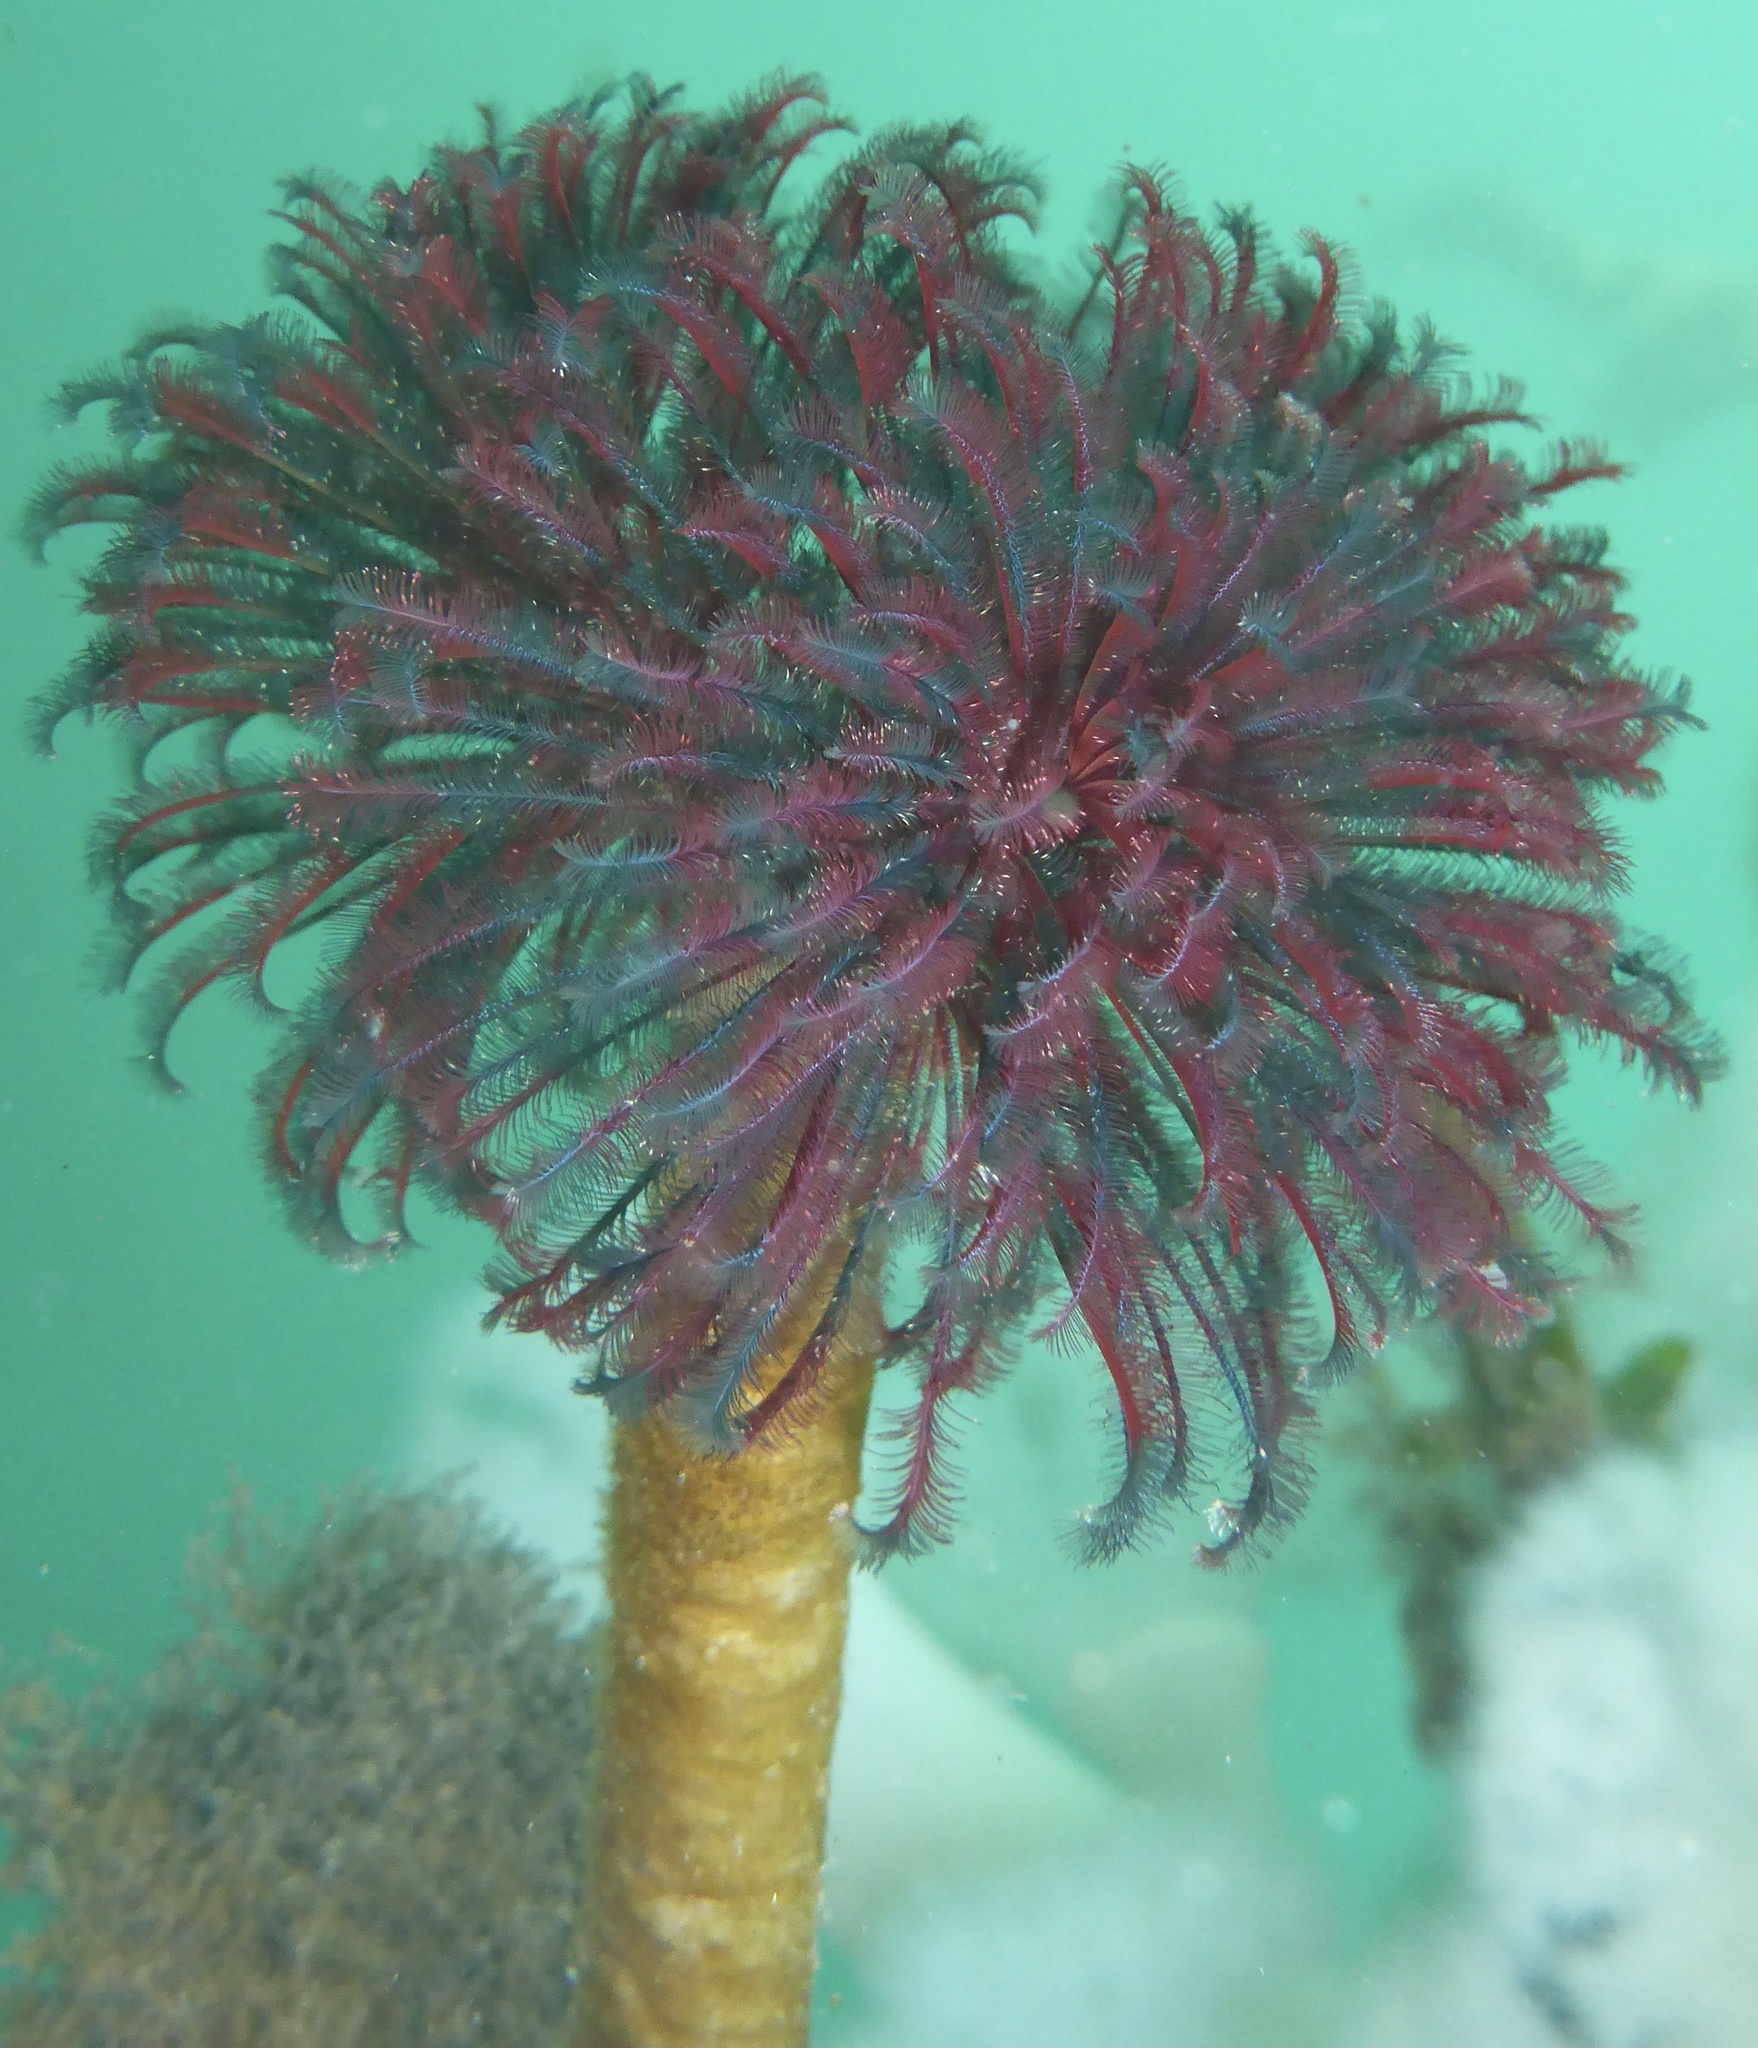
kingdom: Animalia
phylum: Annelida
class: Polychaeta
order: Sabellida
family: Sabellidae
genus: Eudistylia
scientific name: Eudistylia vancouveri
